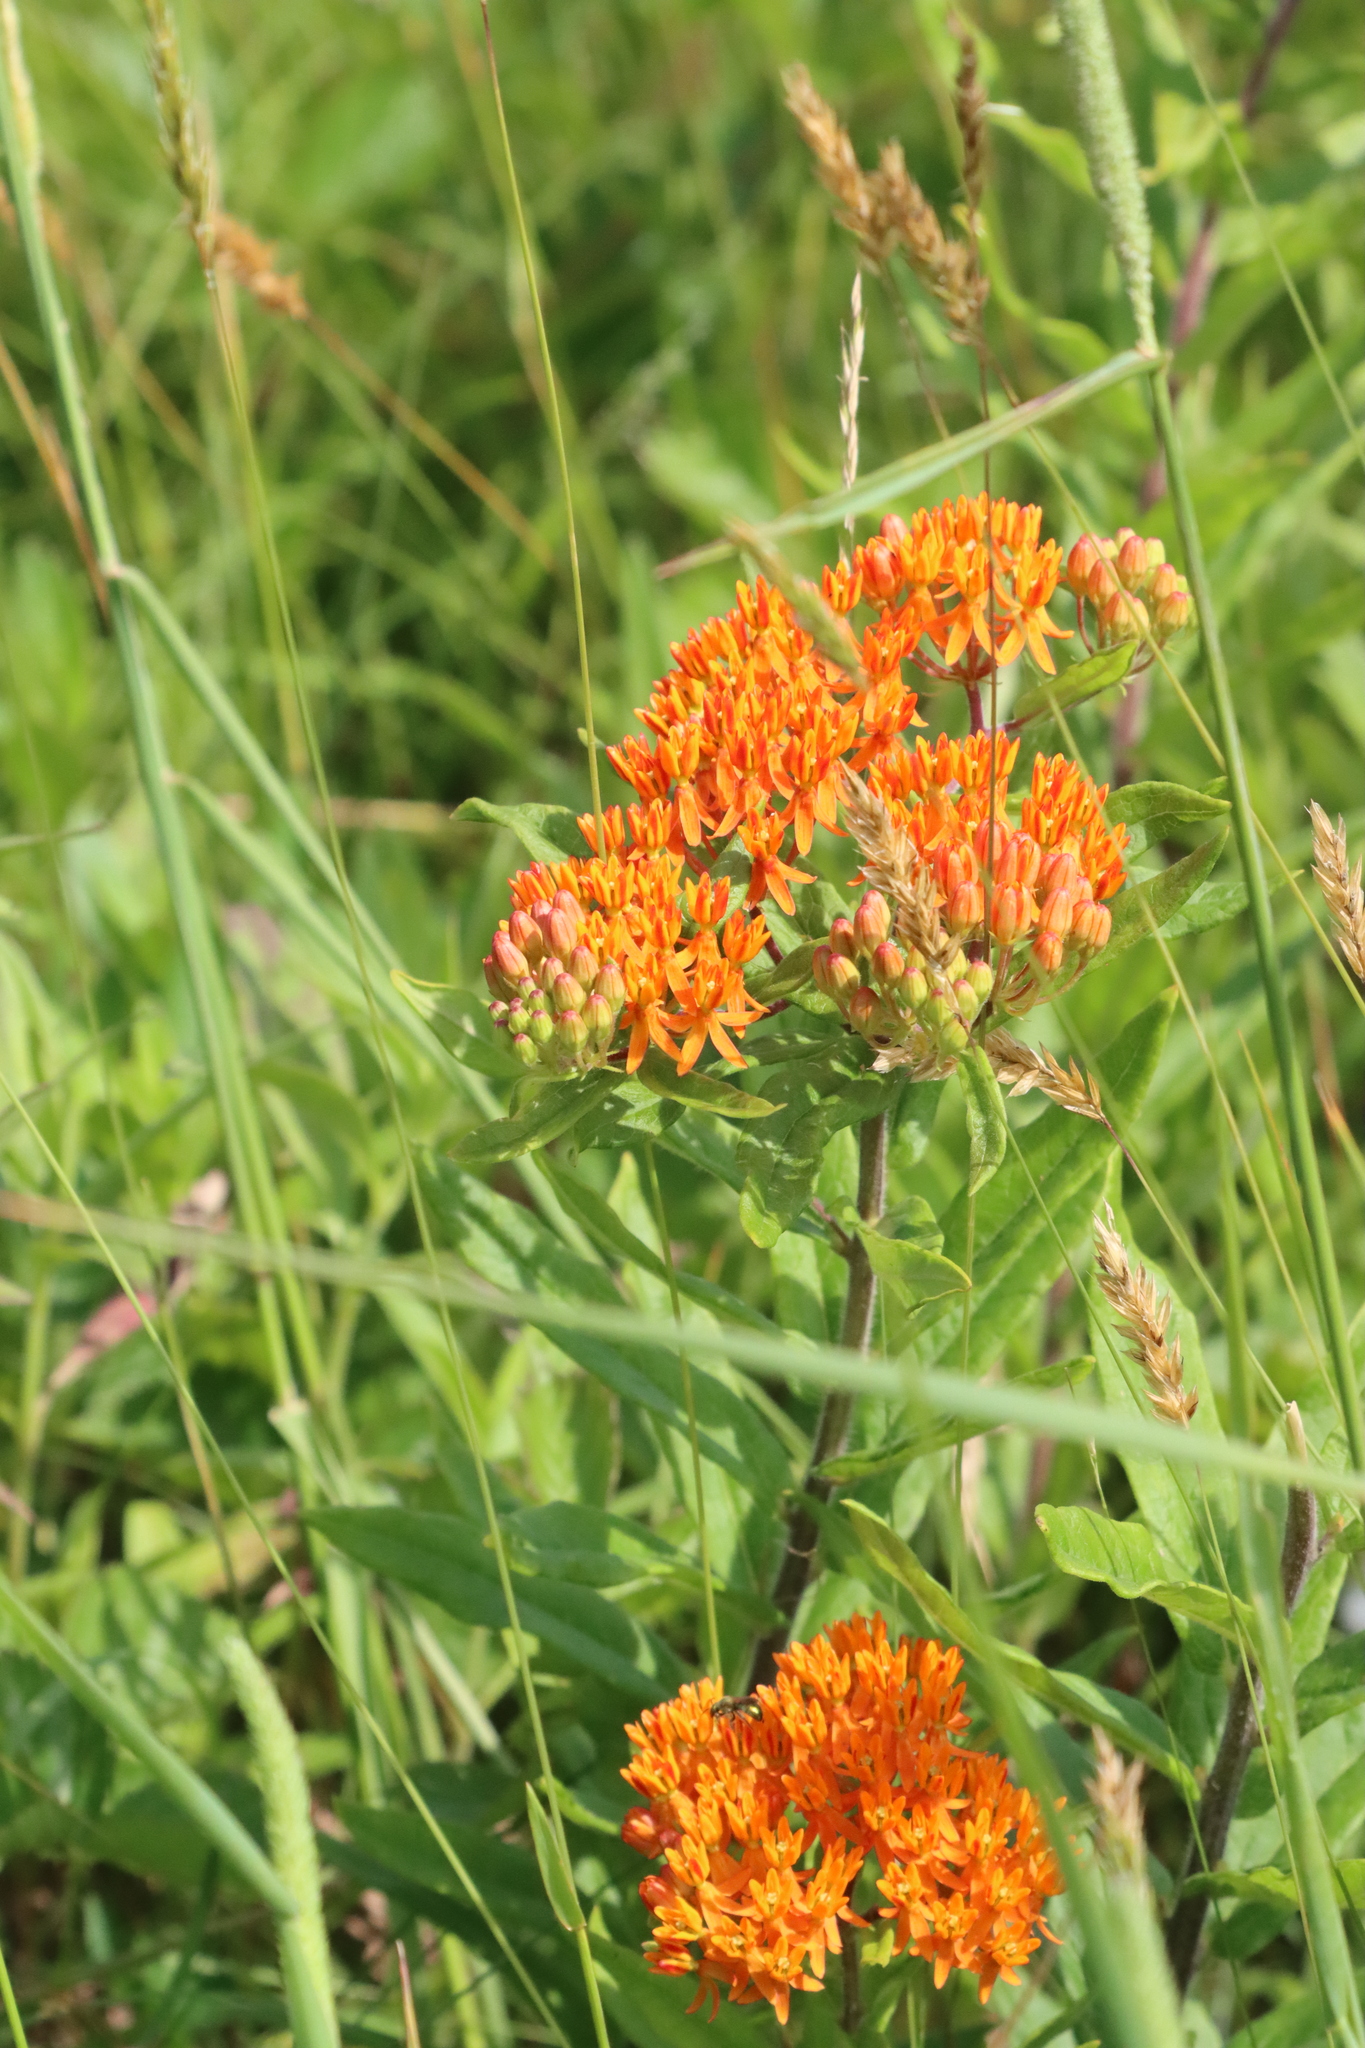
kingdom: Plantae
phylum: Tracheophyta
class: Magnoliopsida
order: Gentianales
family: Apocynaceae
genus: Asclepias
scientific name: Asclepias tuberosa
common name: Butterfly milkweed
